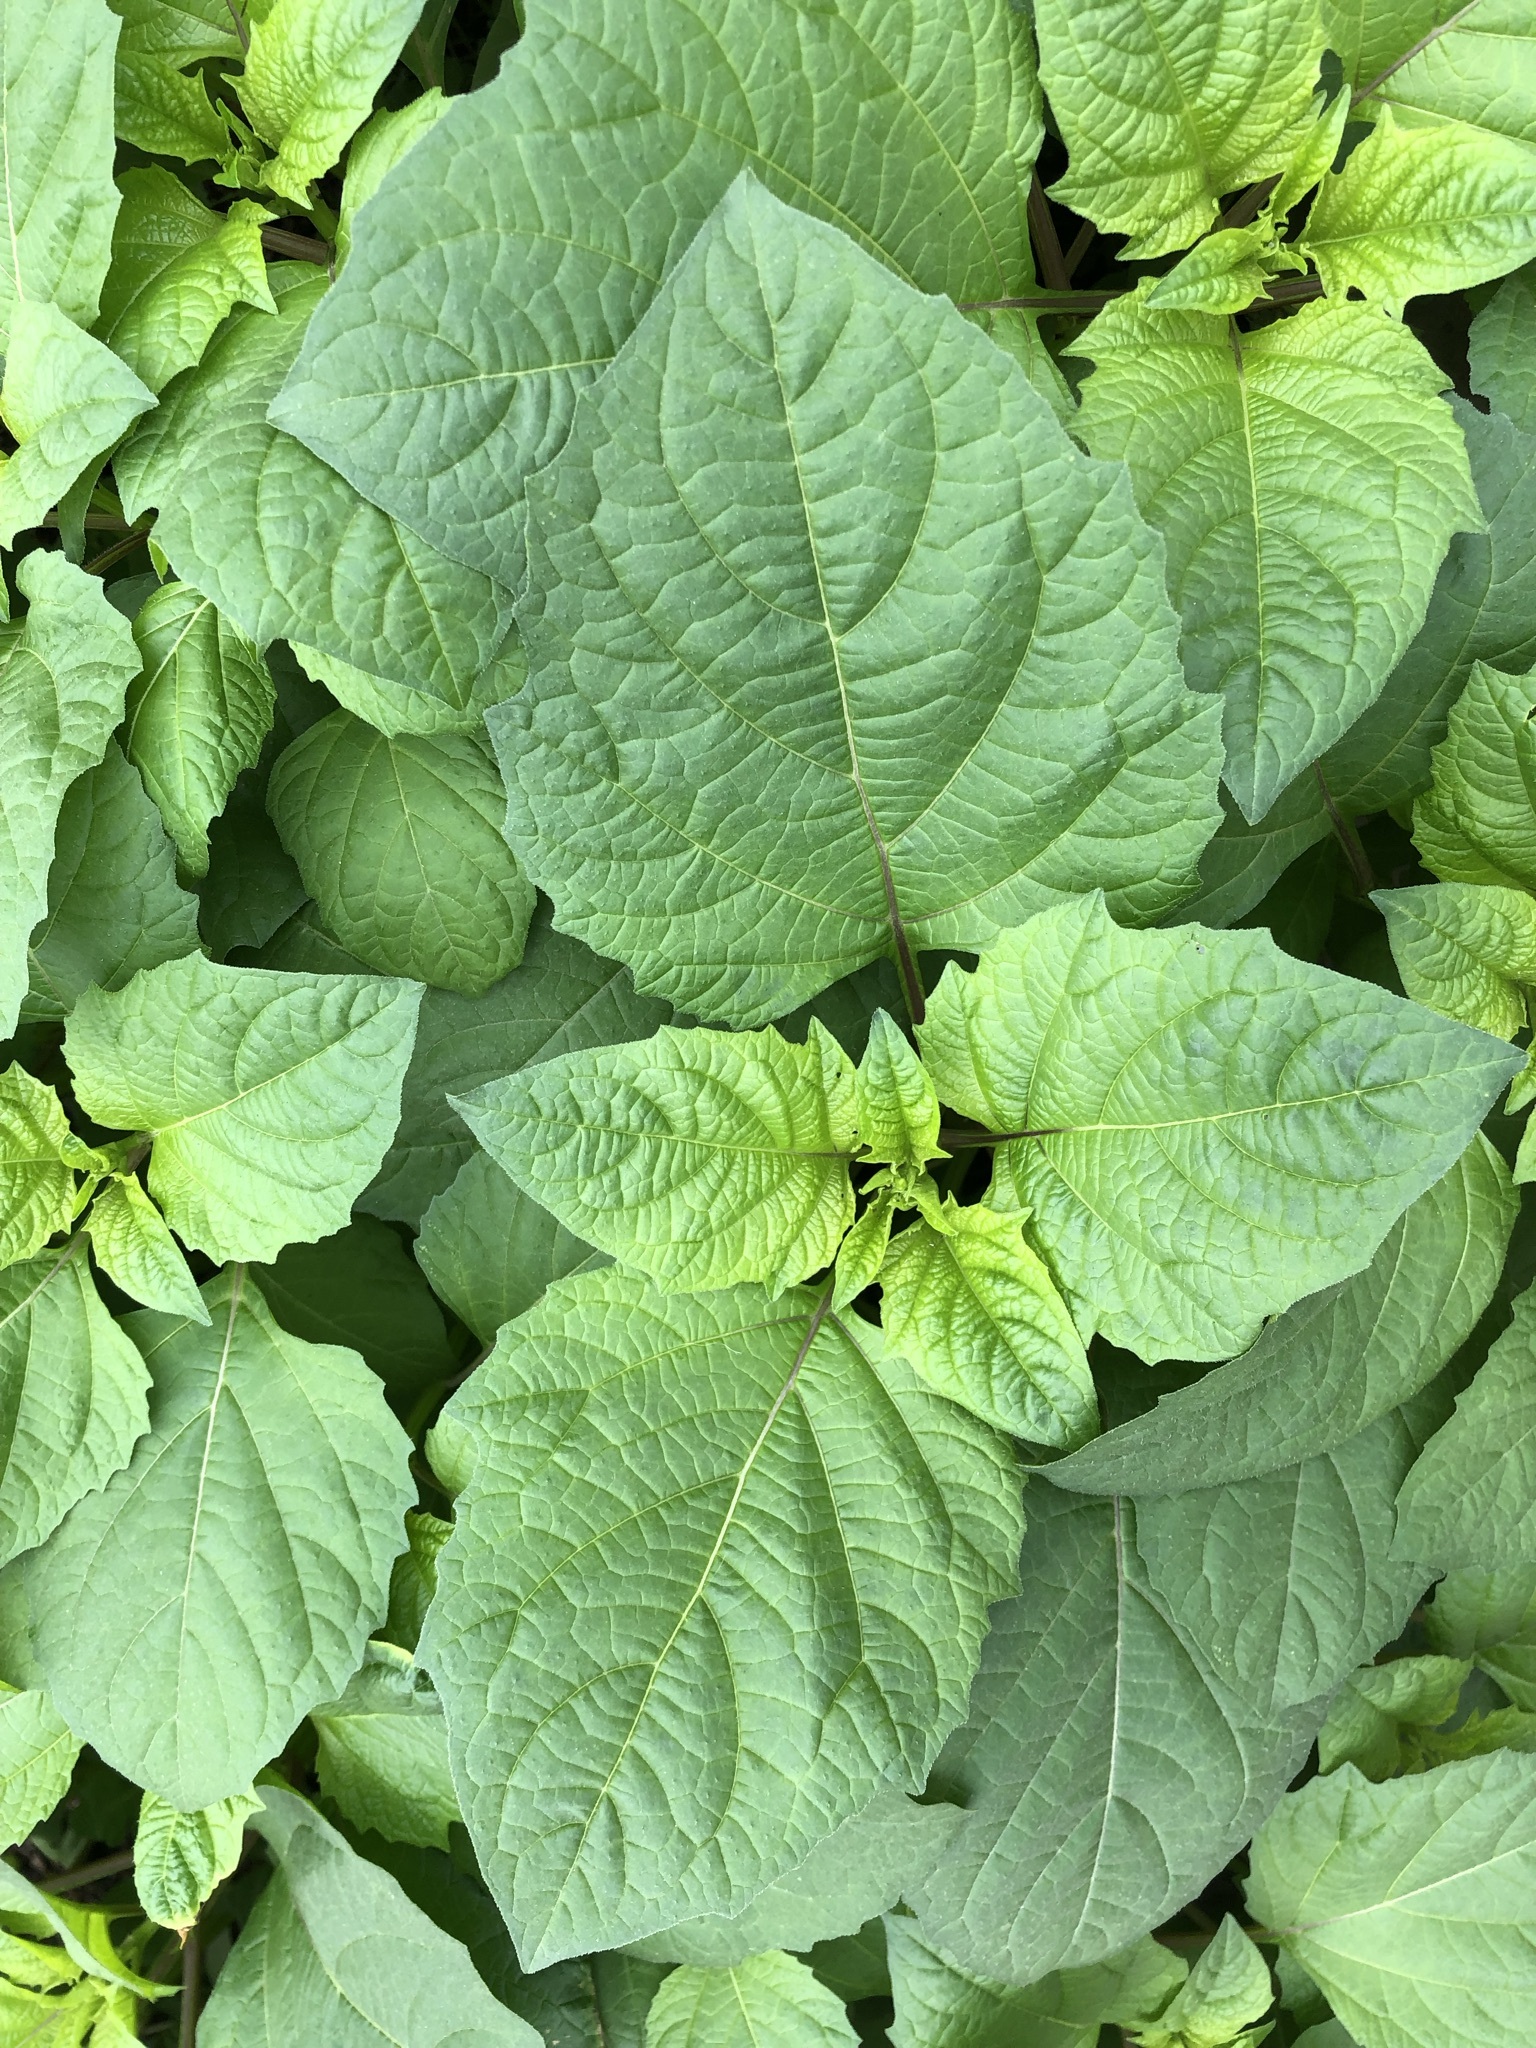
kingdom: Plantae
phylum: Tracheophyta
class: Magnoliopsida
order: Solanales
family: Solanaceae
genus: Nicandra
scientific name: Nicandra physalodes
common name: Apple-of-peru
